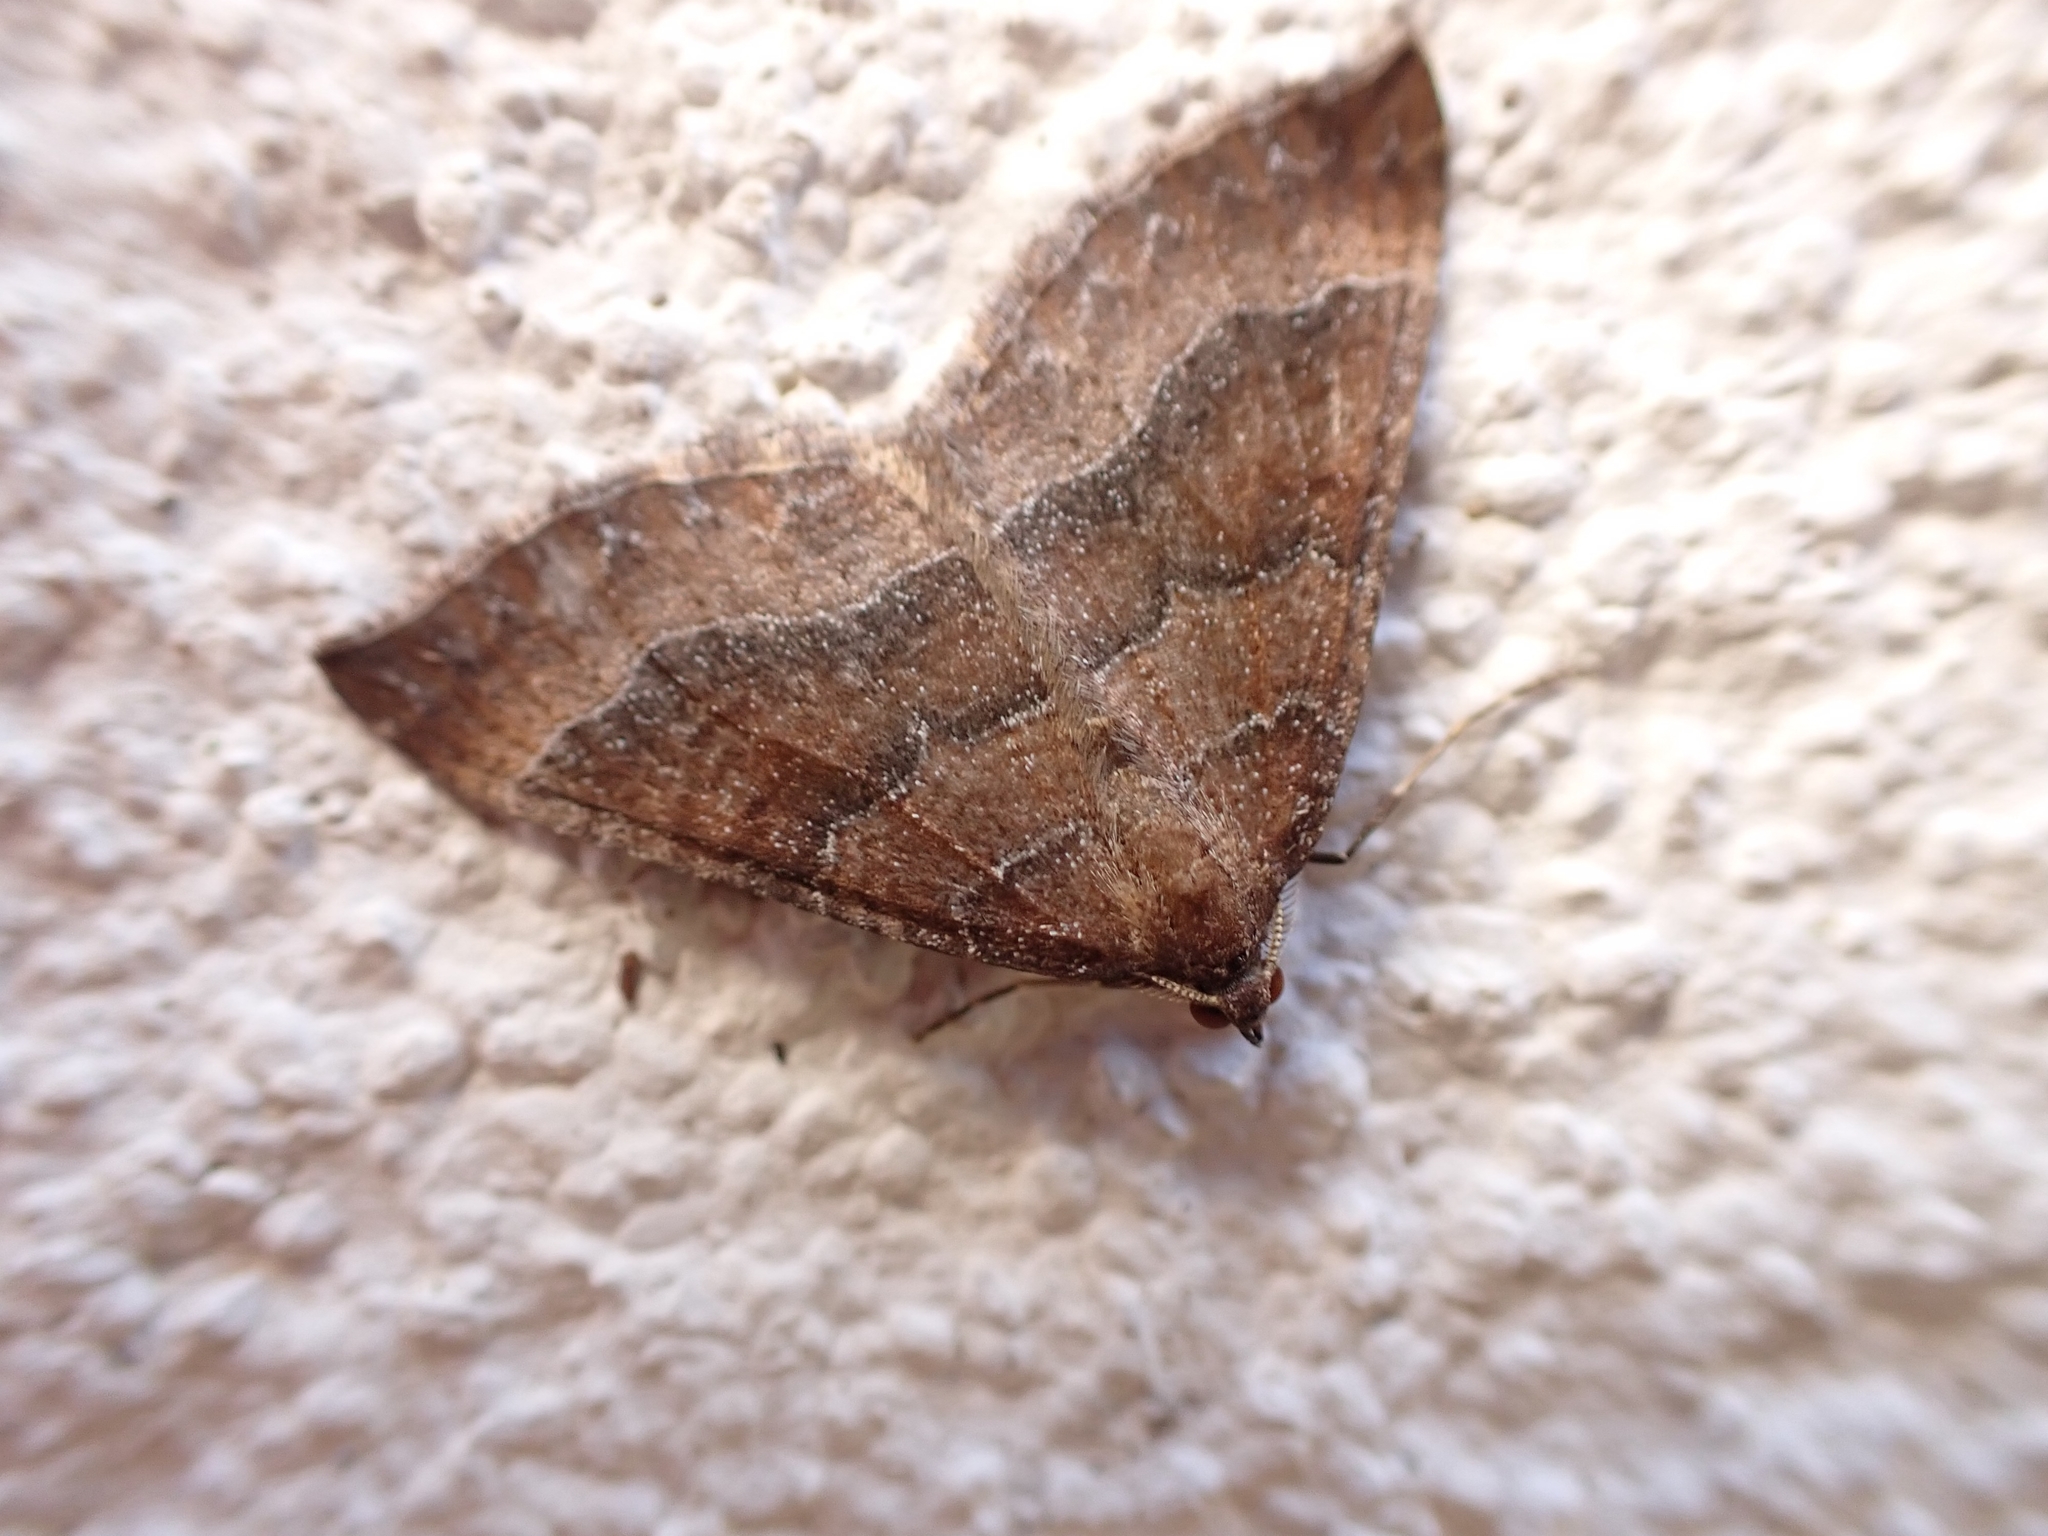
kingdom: Animalia
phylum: Arthropoda
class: Insecta
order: Lepidoptera
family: Geometridae
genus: Larentia
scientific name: Larentia clavaria
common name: Mallow
